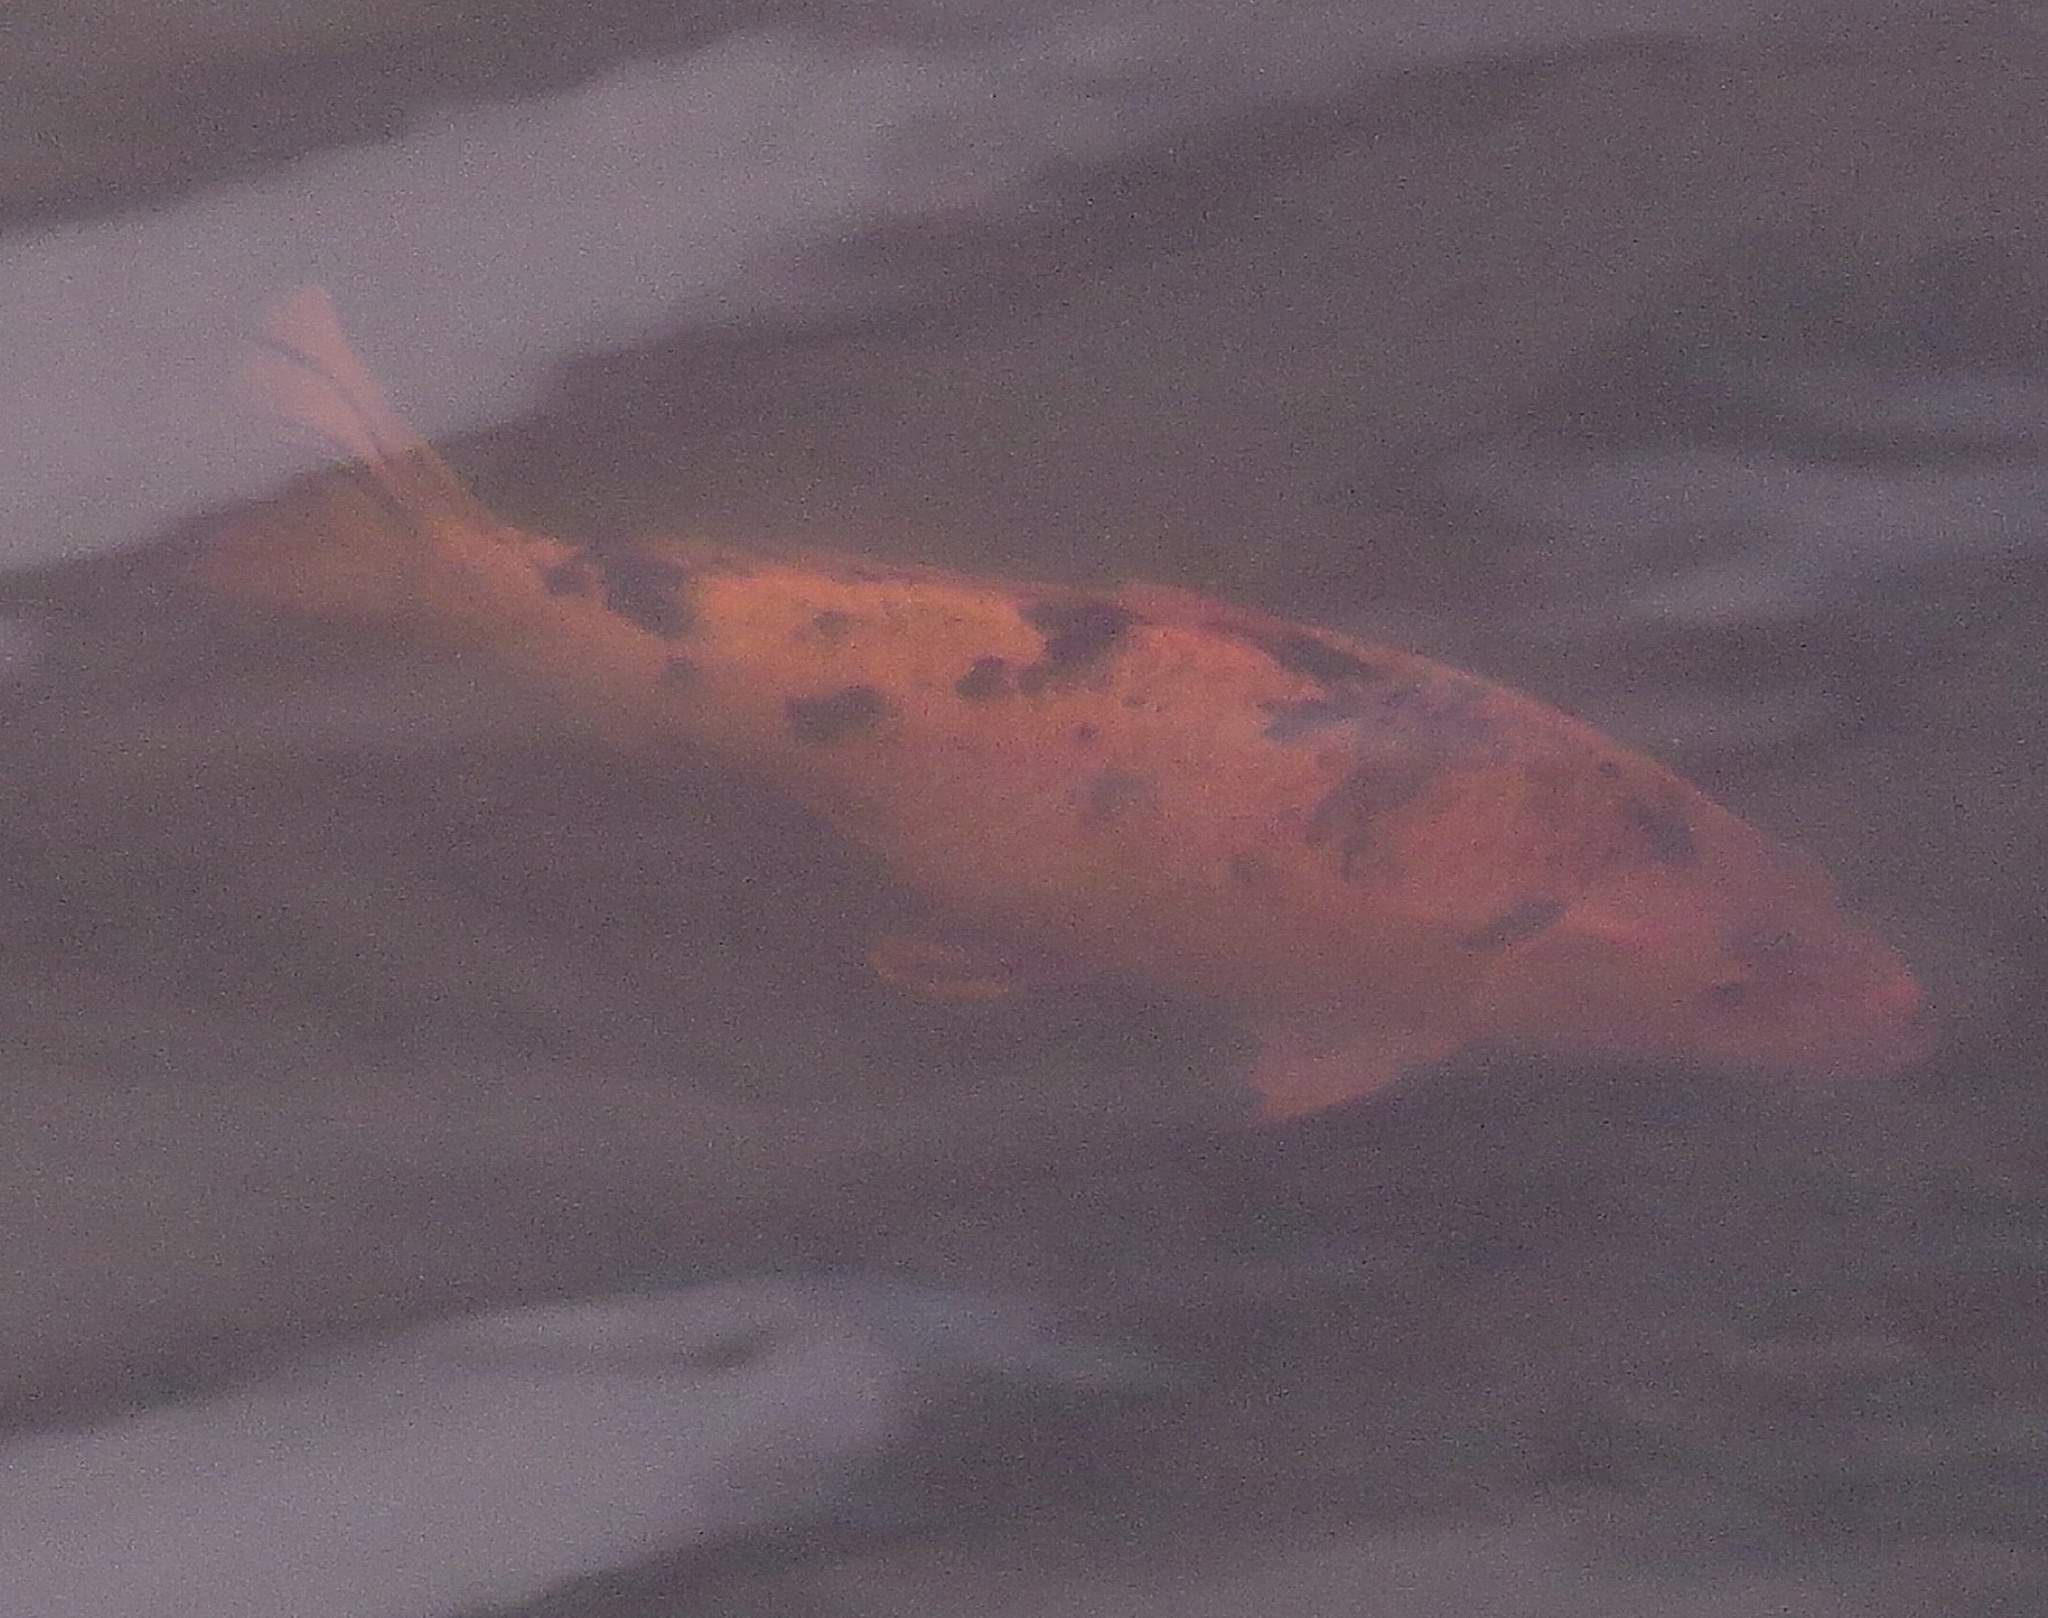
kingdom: Animalia
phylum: Chordata
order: Cypriniformes
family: Cyprinidae
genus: Cyprinus
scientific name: Cyprinus rubrofuscus
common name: Koi
